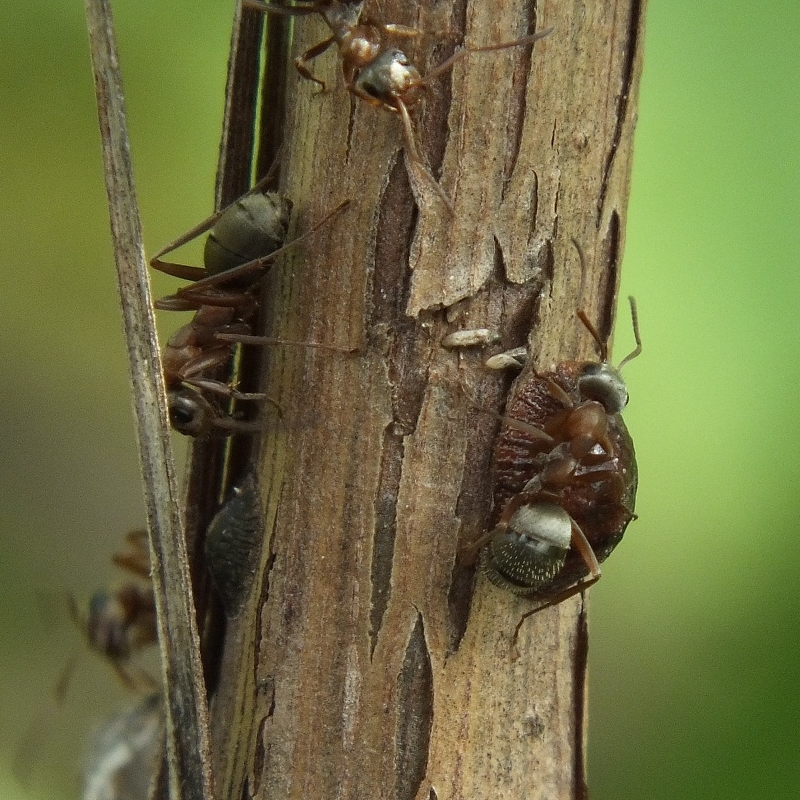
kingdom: Animalia
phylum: Arthropoda
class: Insecta
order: Hymenoptera
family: Formicidae
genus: Formica
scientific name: Formica cinerea
